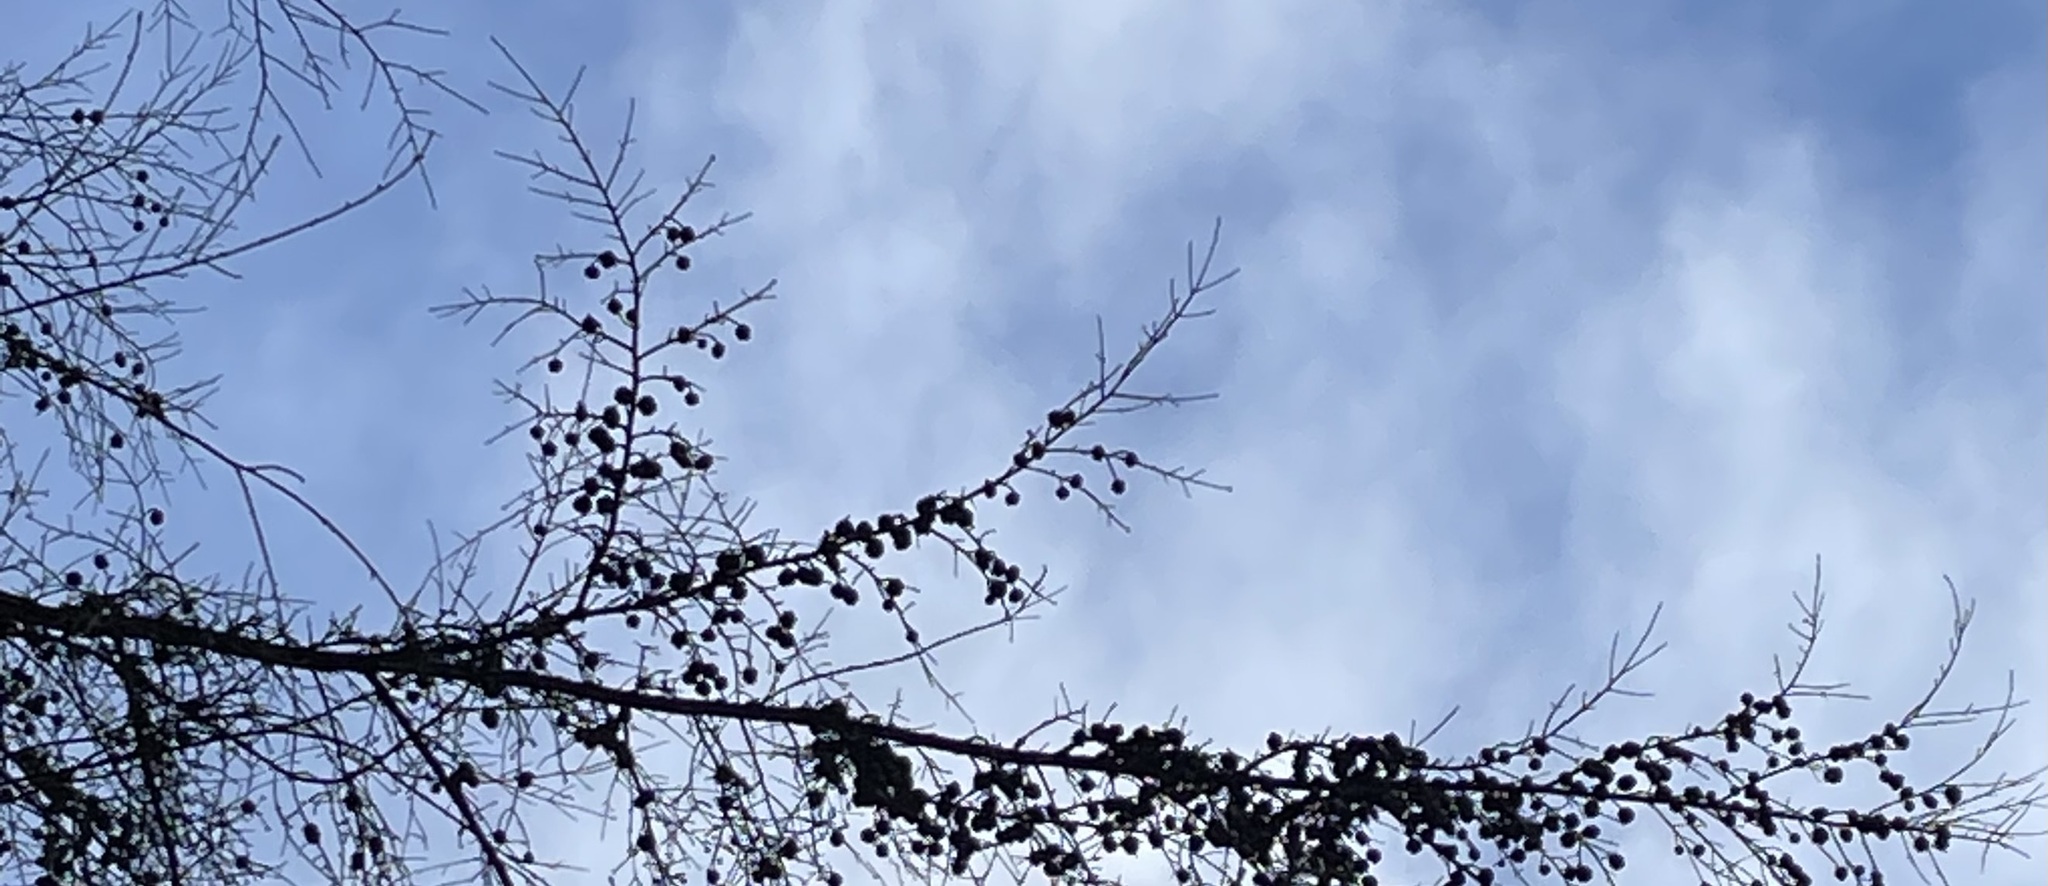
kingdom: Plantae
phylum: Tracheophyta
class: Pinopsida
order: Pinales
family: Pinaceae
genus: Tsuga
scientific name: Tsuga heterophylla
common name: Western hemlock
